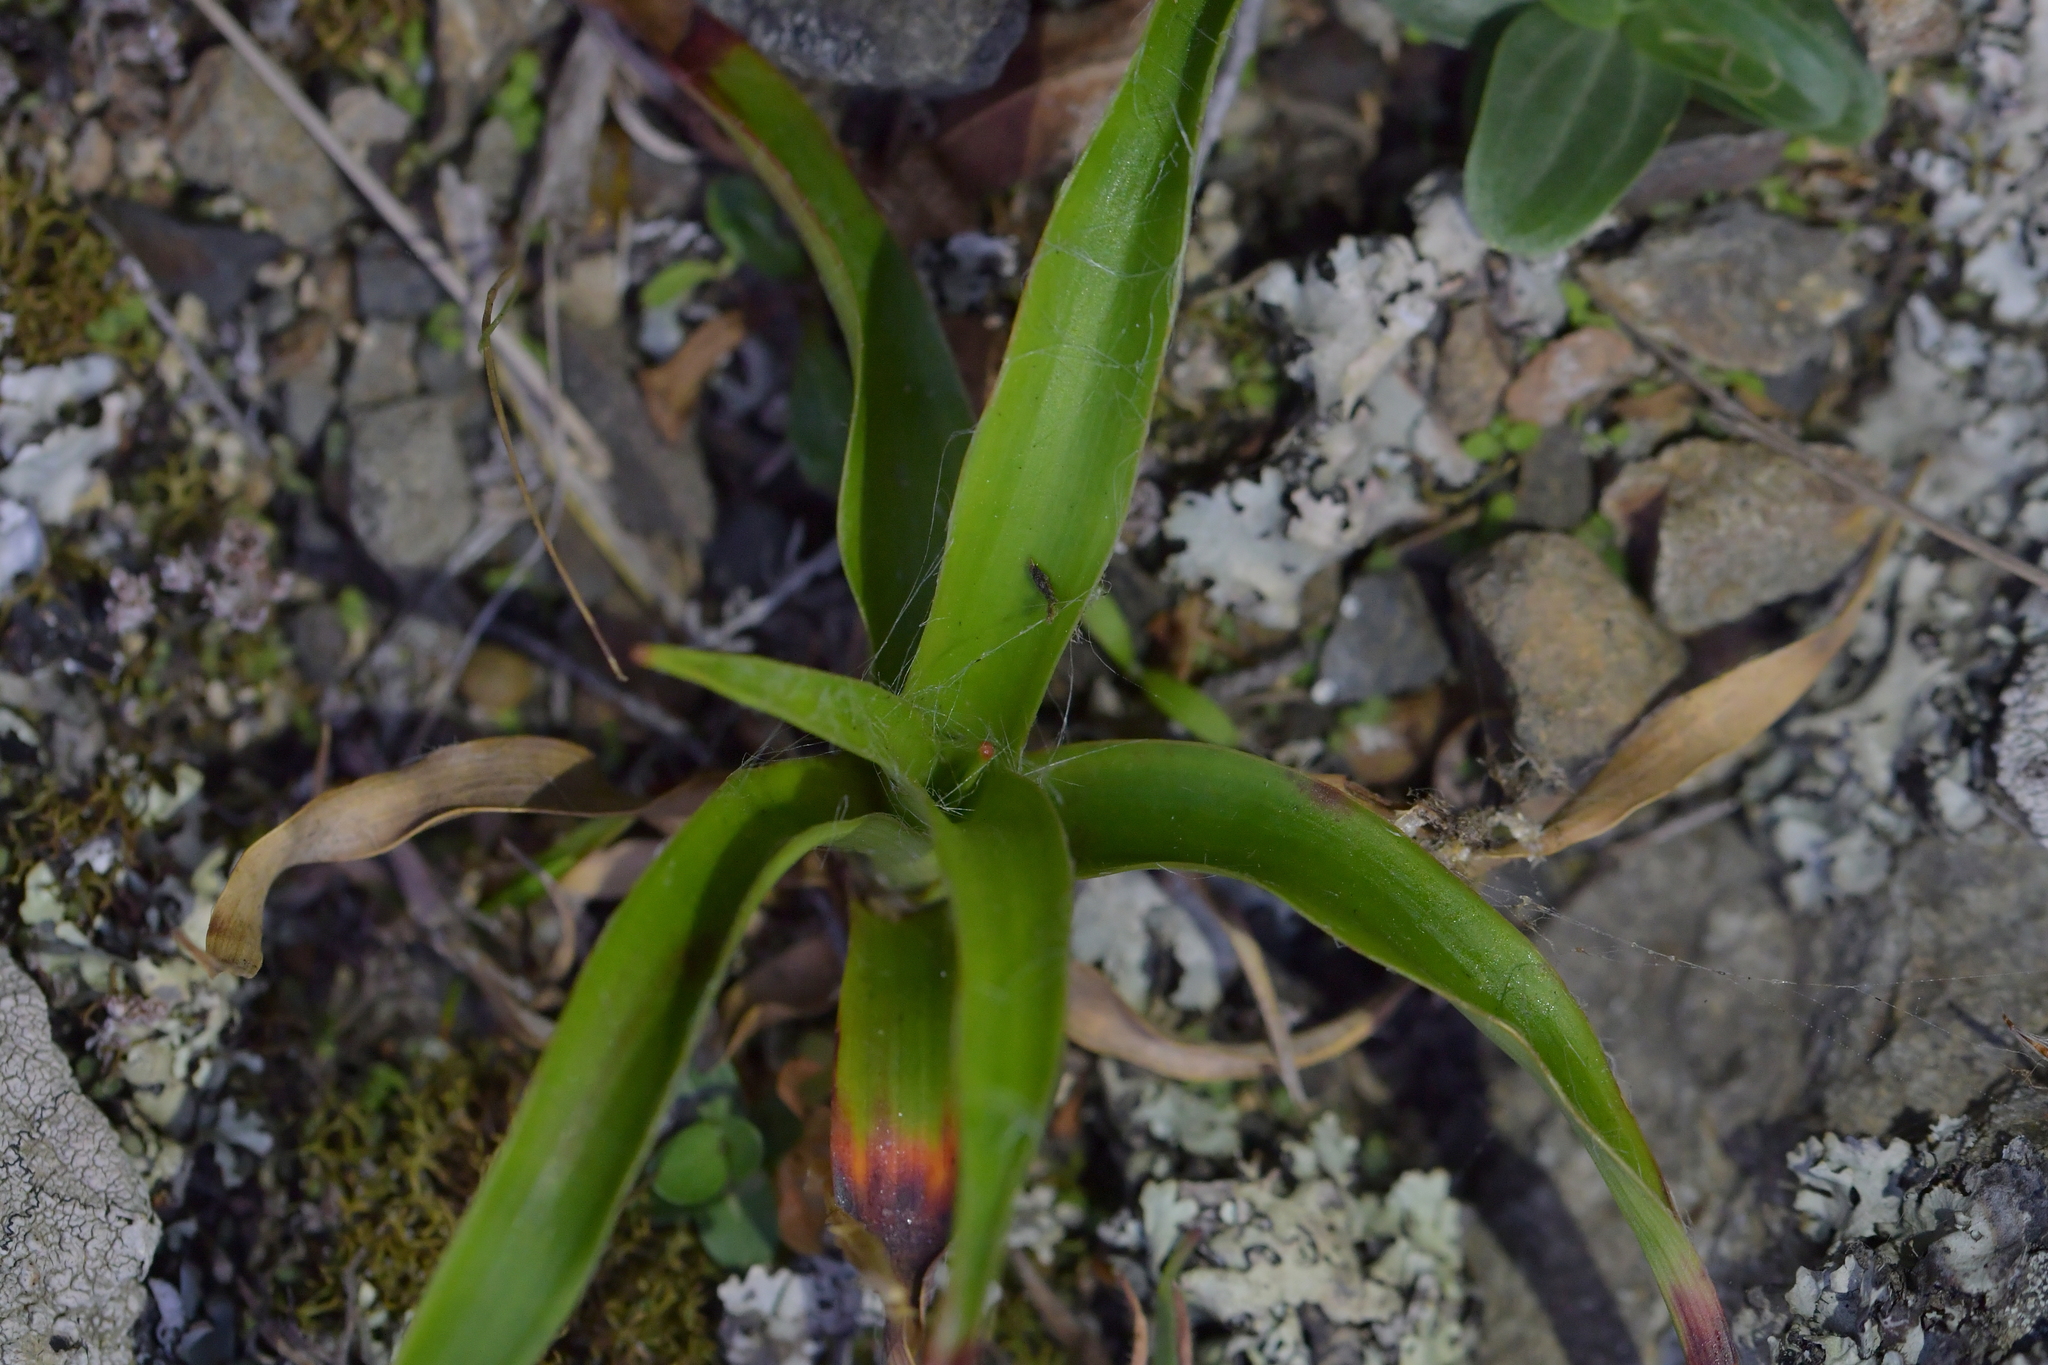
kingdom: Plantae
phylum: Tracheophyta
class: Liliopsida
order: Poales
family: Juncaceae
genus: Luzula
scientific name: Luzula banksiana
